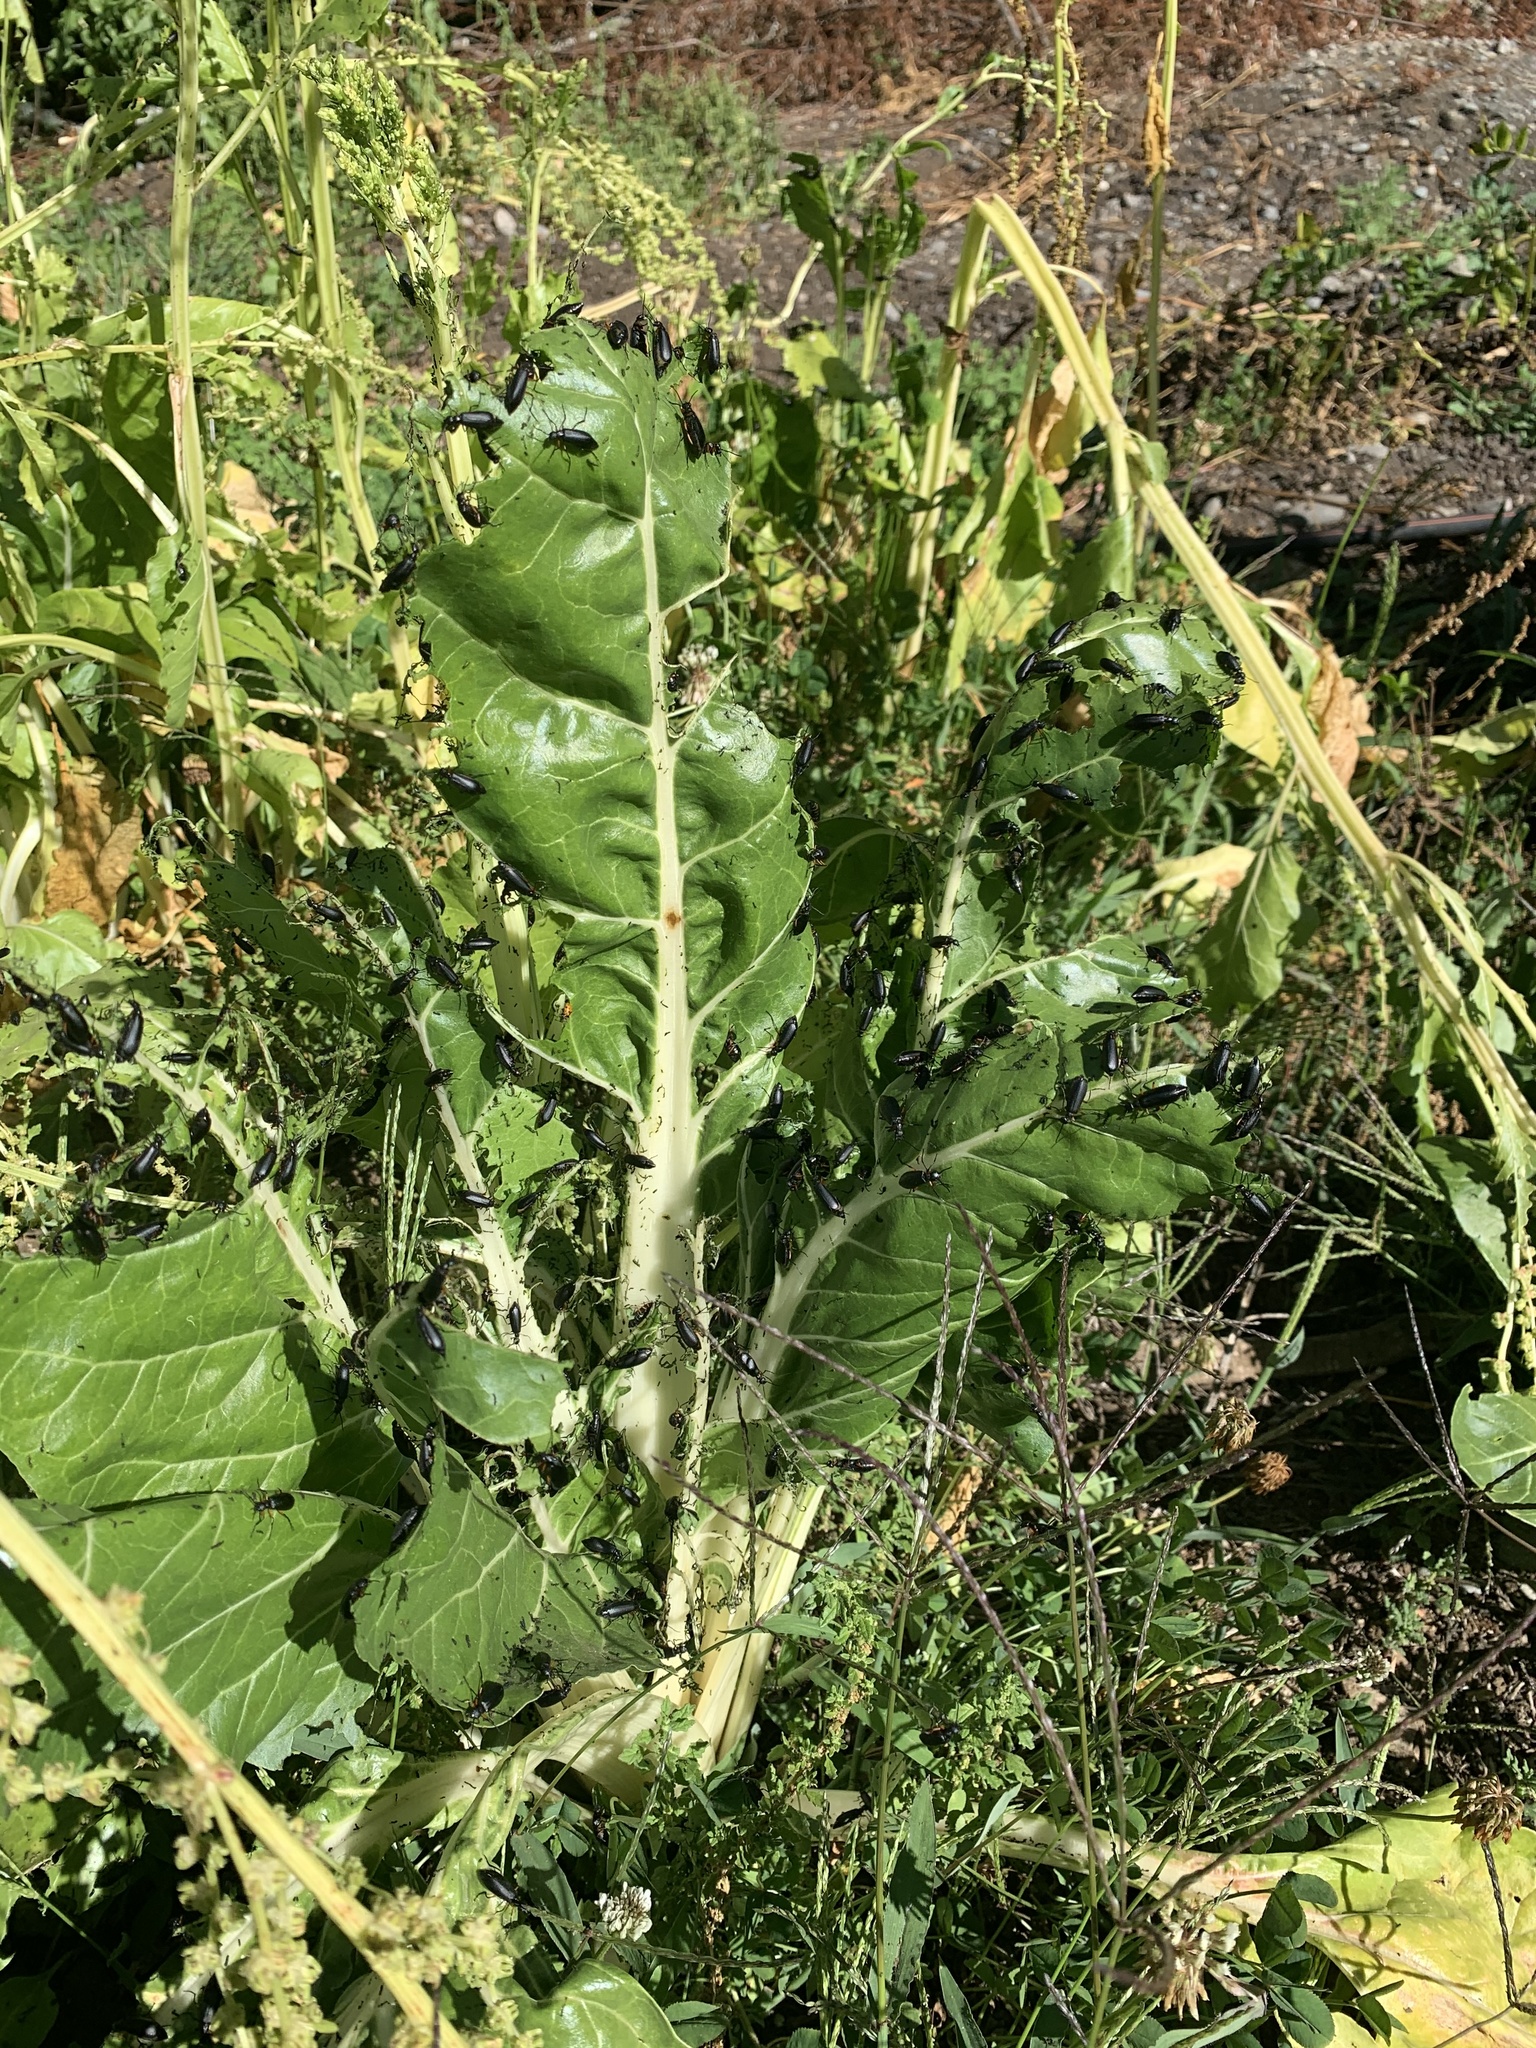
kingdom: Animalia
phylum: Arthropoda
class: Insecta
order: Coleoptera
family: Meloidae
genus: Epicauta
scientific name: Epicauta
